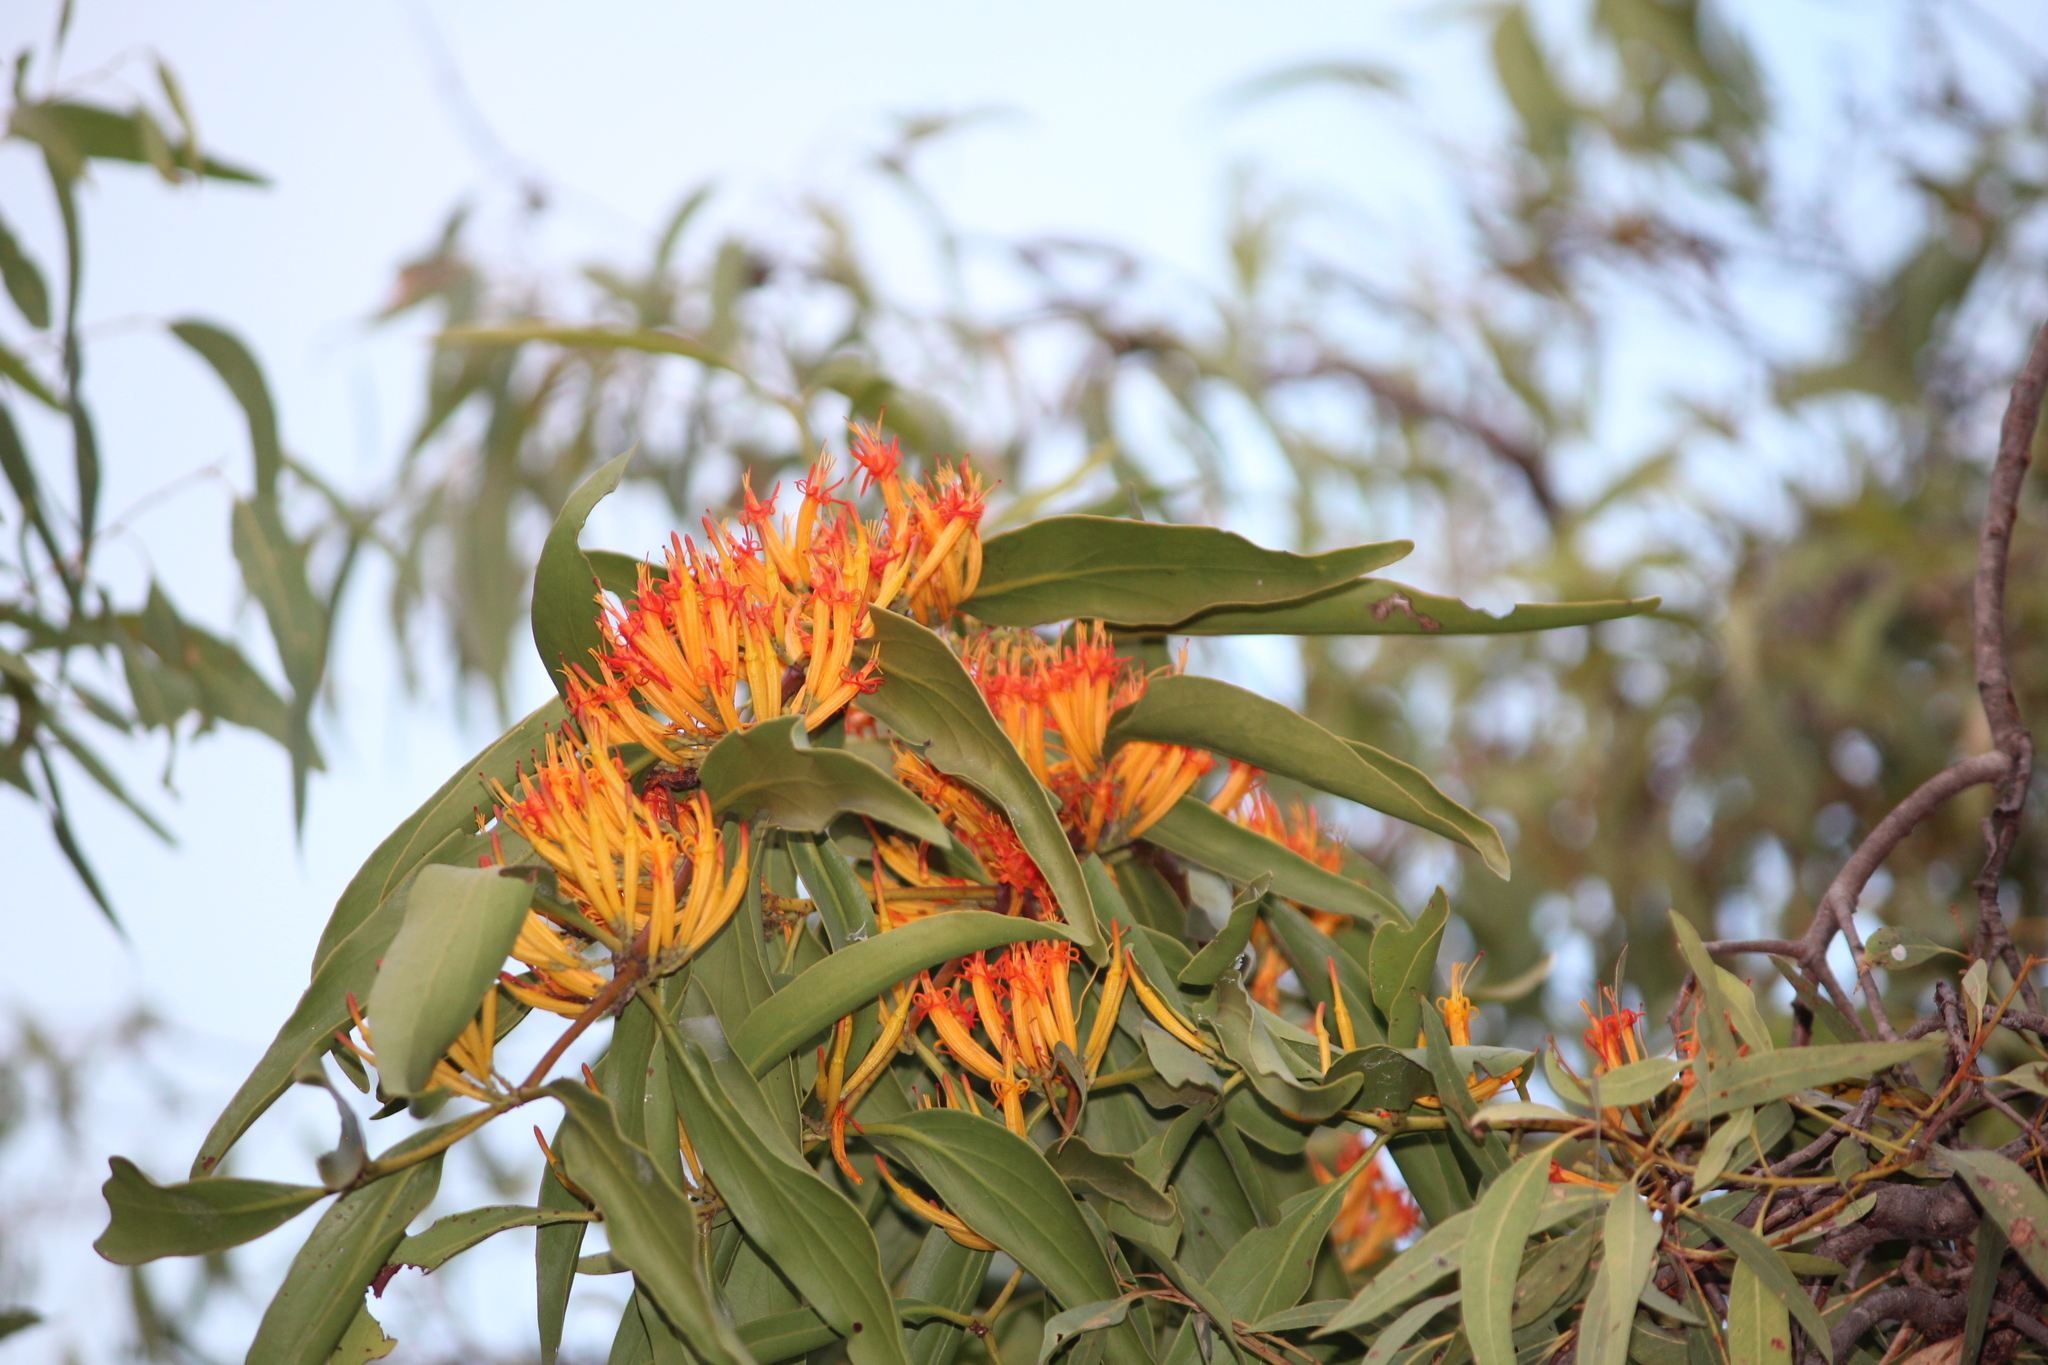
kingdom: Plantae
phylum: Tracheophyta
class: Magnoliopsida
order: Santalales
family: Loranthaceae
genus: Dendrophthoe
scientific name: Dendrophthoe glabrescens
